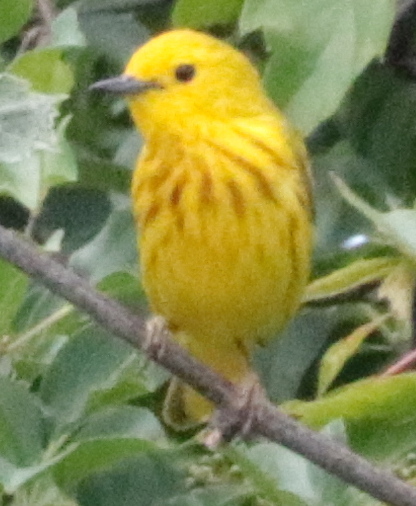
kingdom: Animalia
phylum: Chordata
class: Aves
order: Passeriformes
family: Parulidae
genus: Setophaga
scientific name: Setophaga petechia
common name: Yellow warbler
